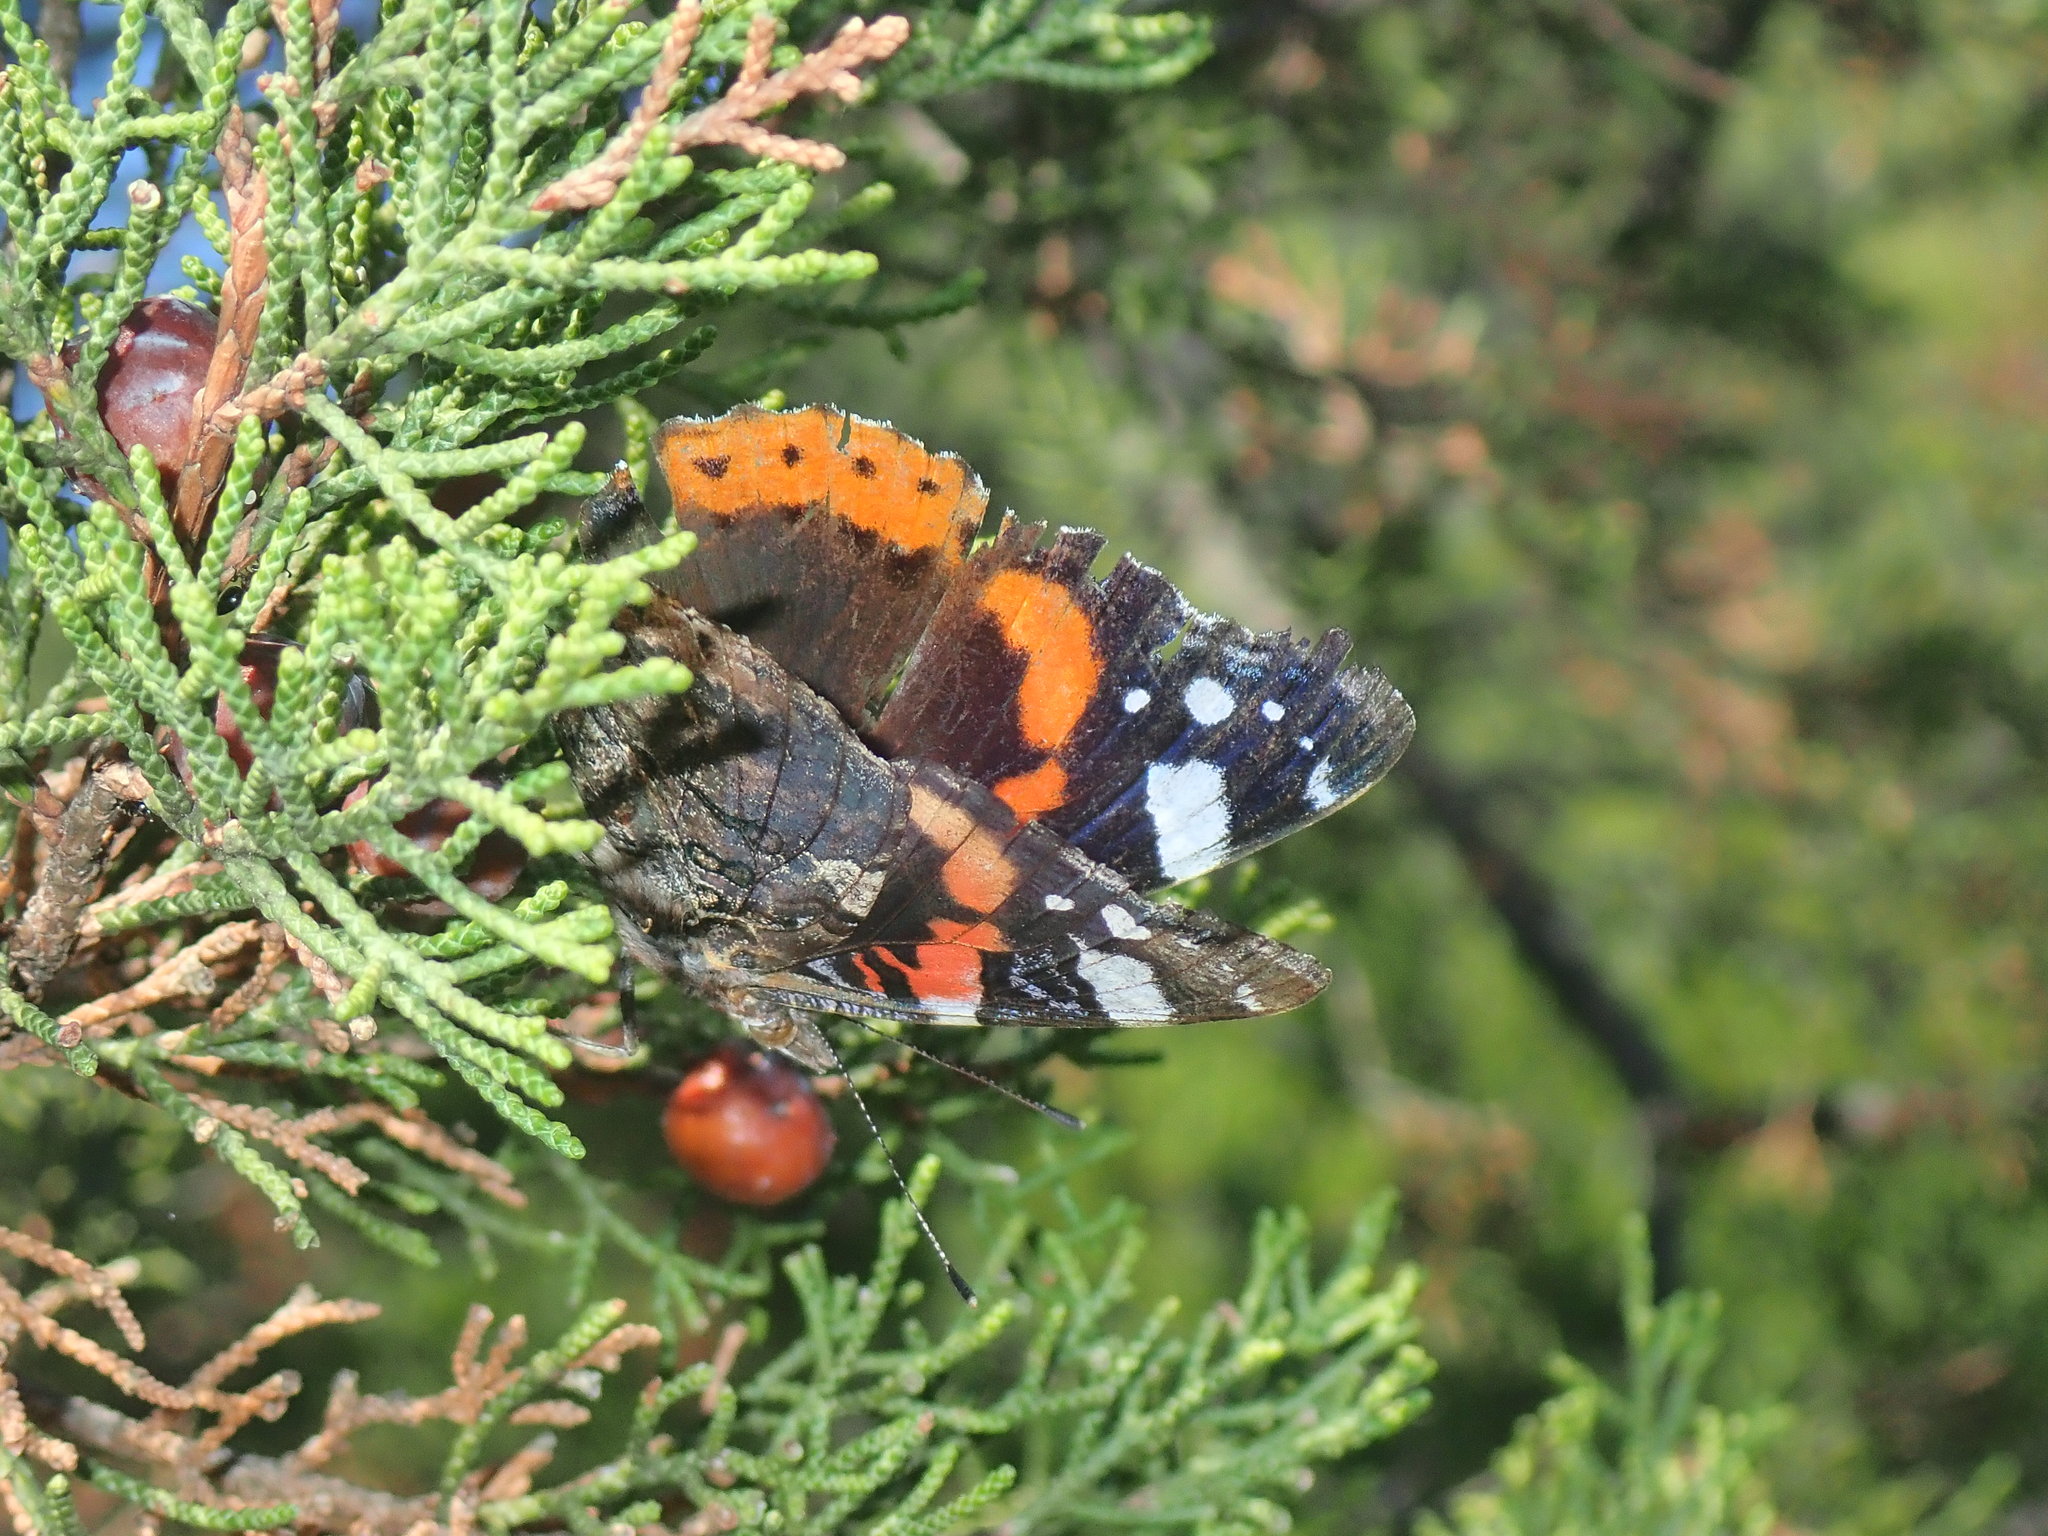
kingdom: Animalia
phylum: Arthropoda
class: Insecta
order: Lepidoptera
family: Nymphalidae
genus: Vanessa
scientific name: Vanessa atalanta
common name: Red admiral
